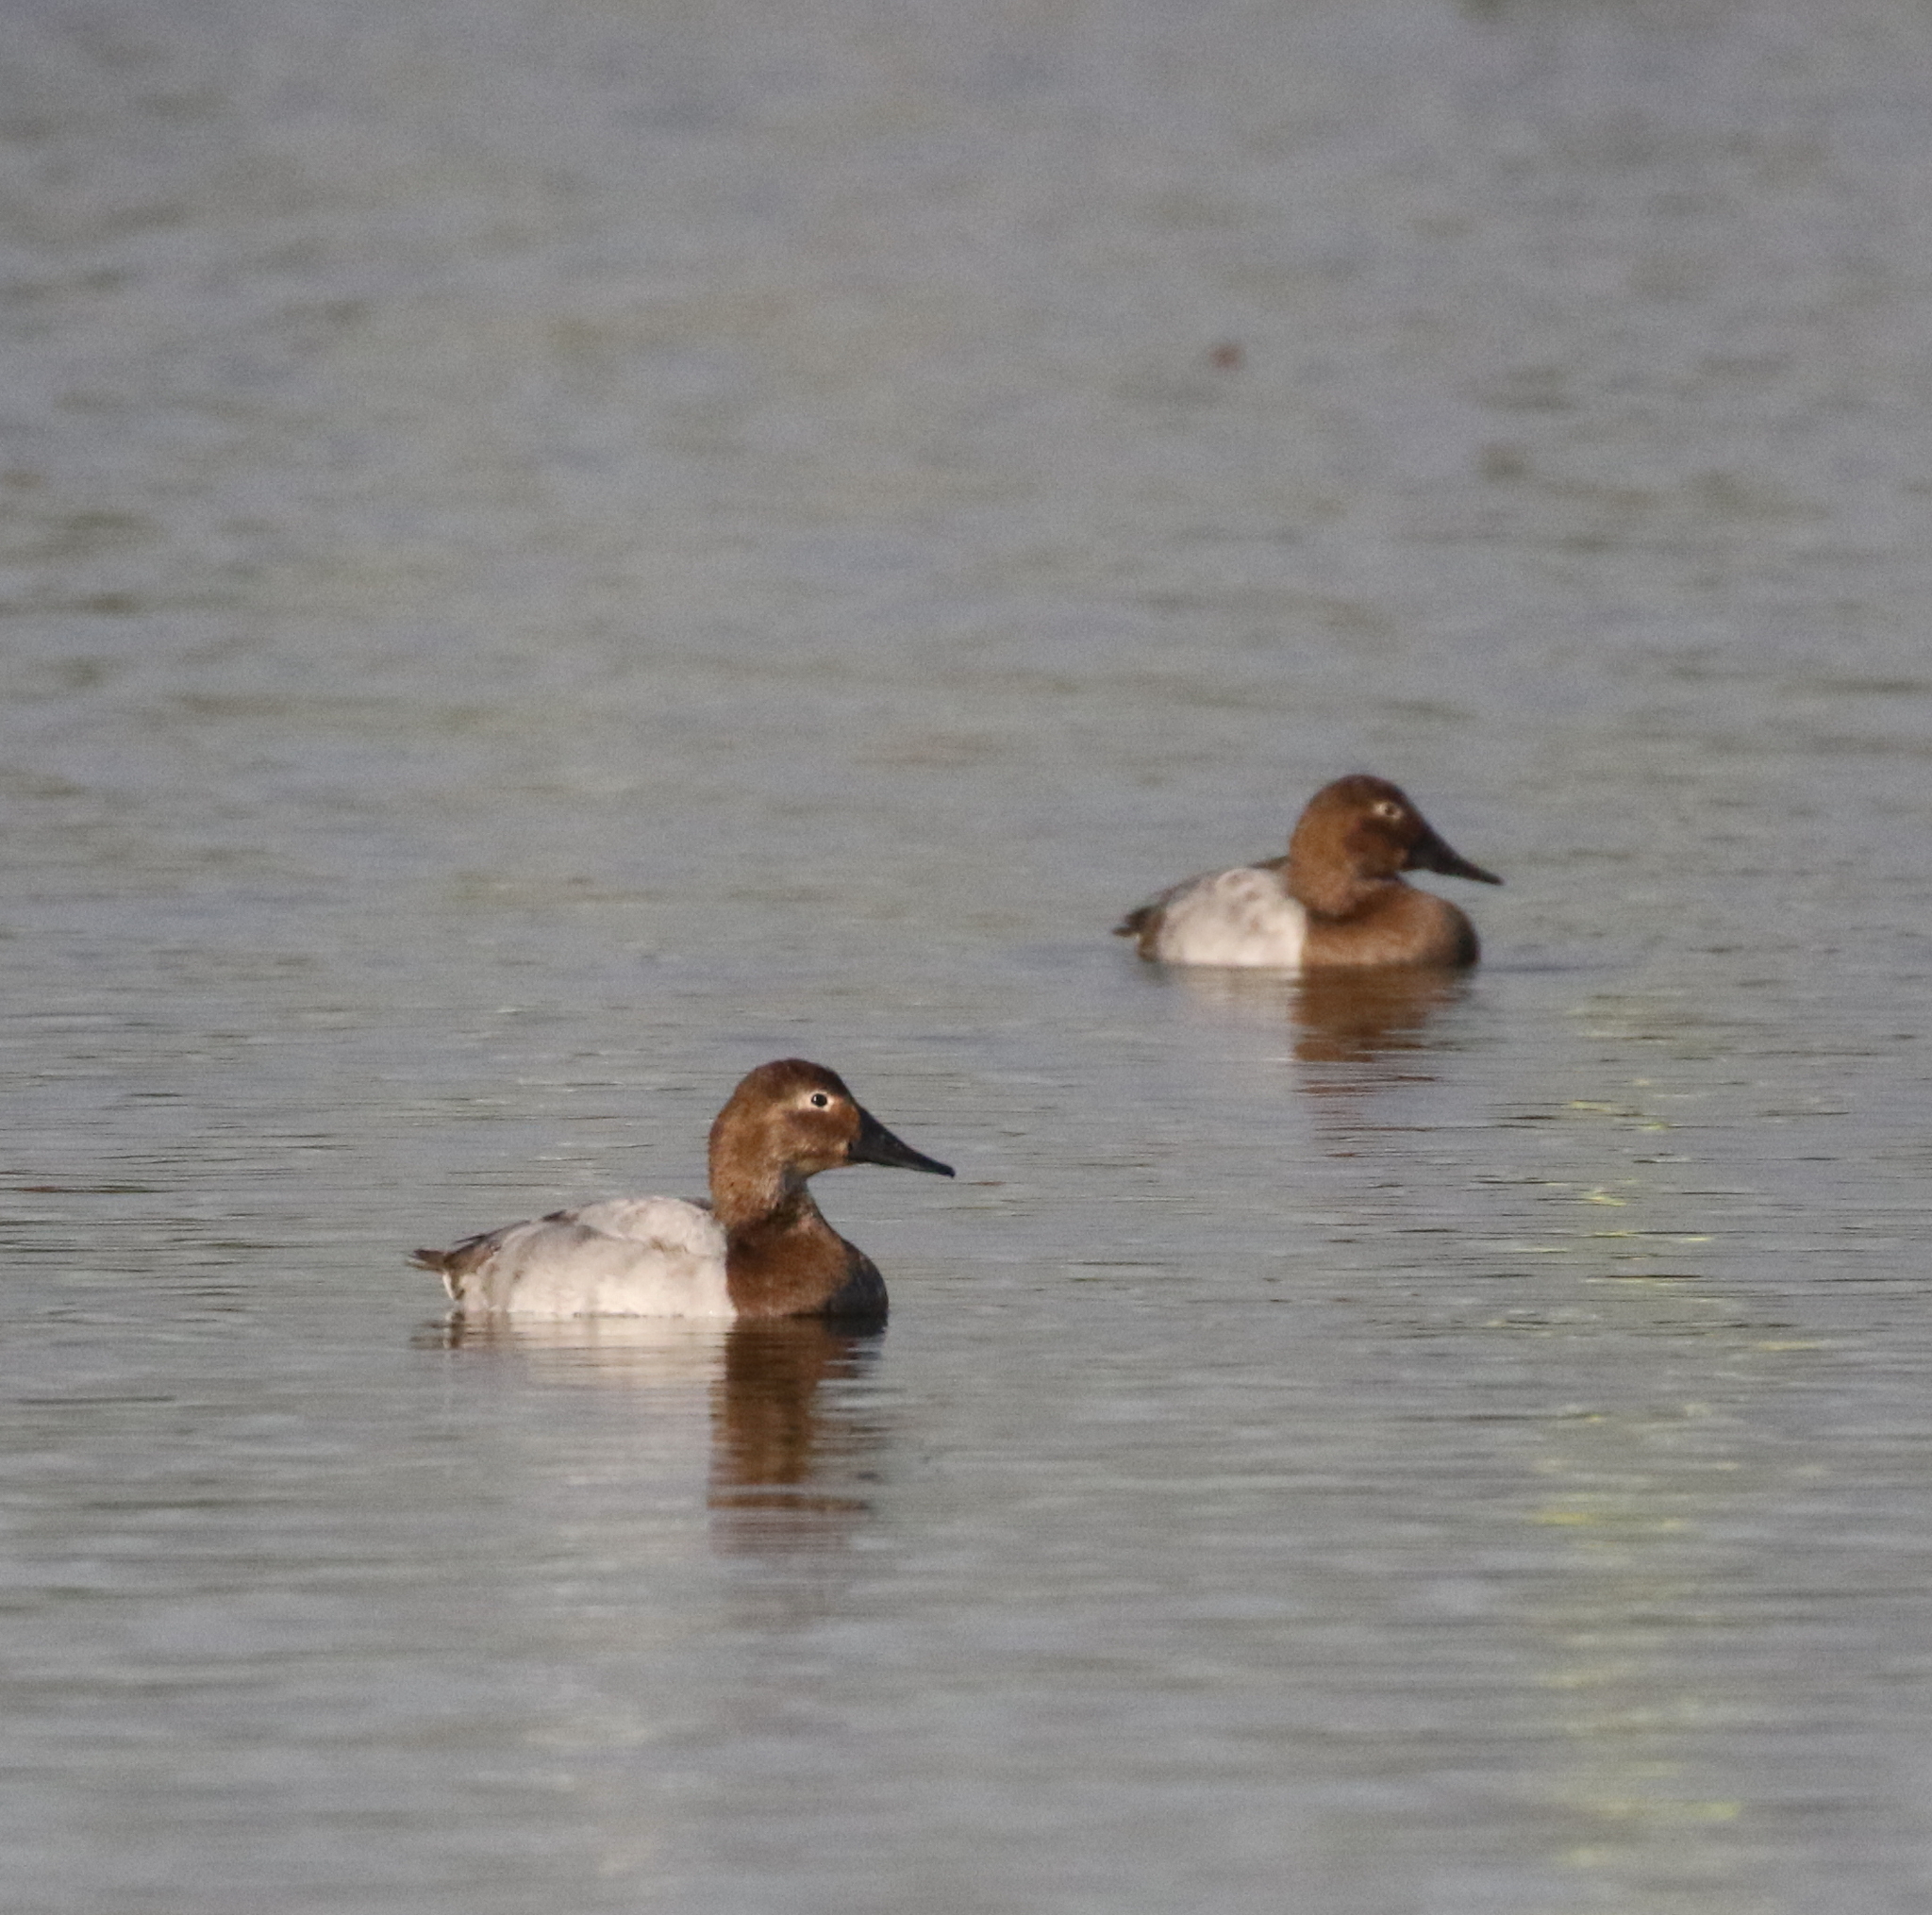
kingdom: Animalia
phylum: Chordata
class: Aves
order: Anseriformes
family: Anatidae
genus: Aythya
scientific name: Aythya valisineria
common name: Canvasback
